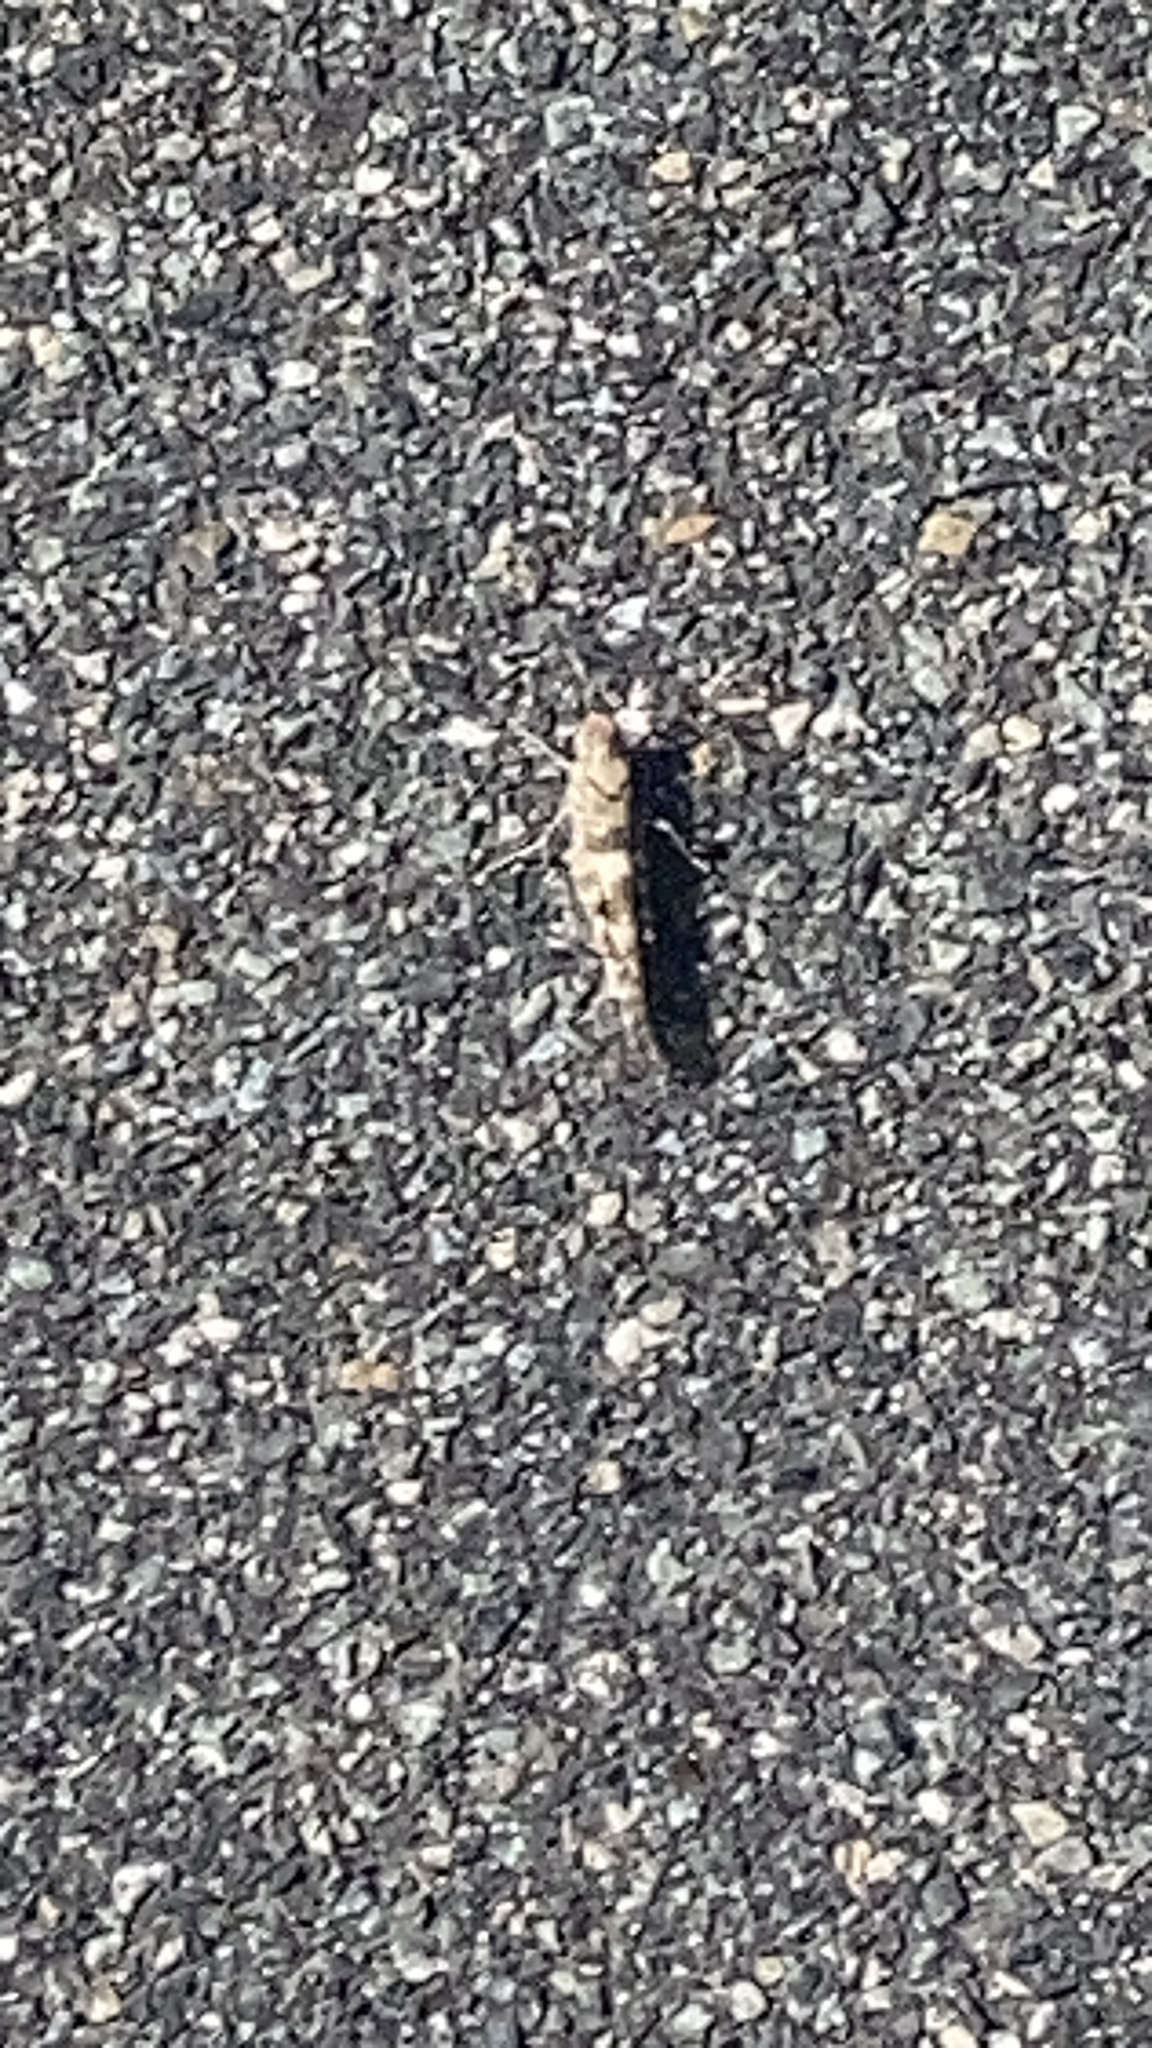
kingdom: Animalia
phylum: Arthropoda
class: Insecta
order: Orthoptera
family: Acrididae
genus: Trimerotropis
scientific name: Trimerotropis pallidipennis
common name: Pallid-winged grasshopper
